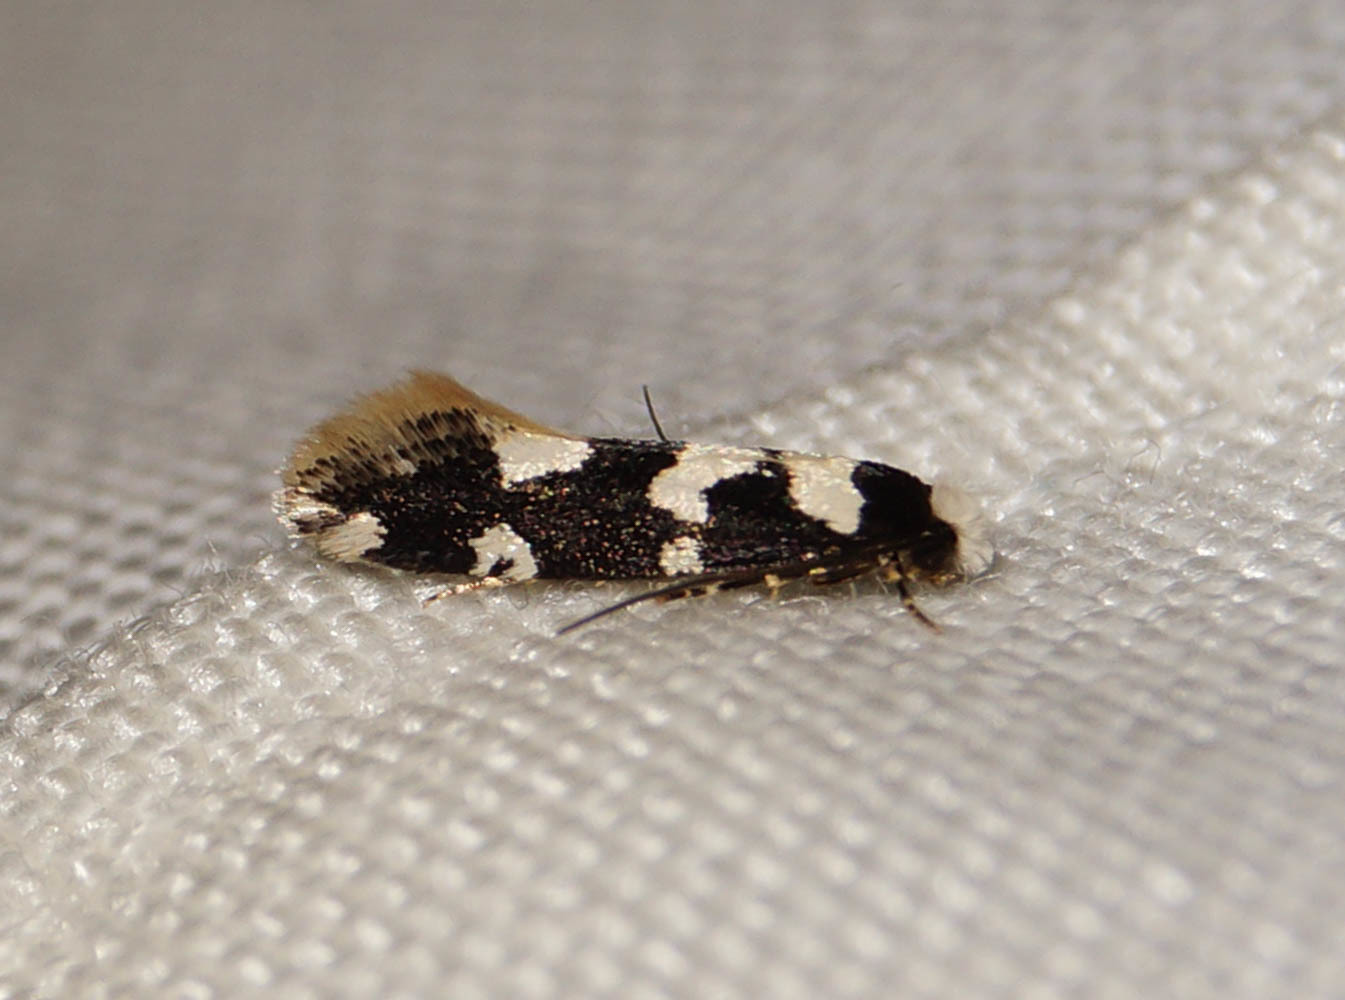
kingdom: Animalia
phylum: Arthropoda
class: Insecta
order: Lepidoptera
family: Tineidae
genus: Neurothaumasia
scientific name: Neurothaumasia ankerella
